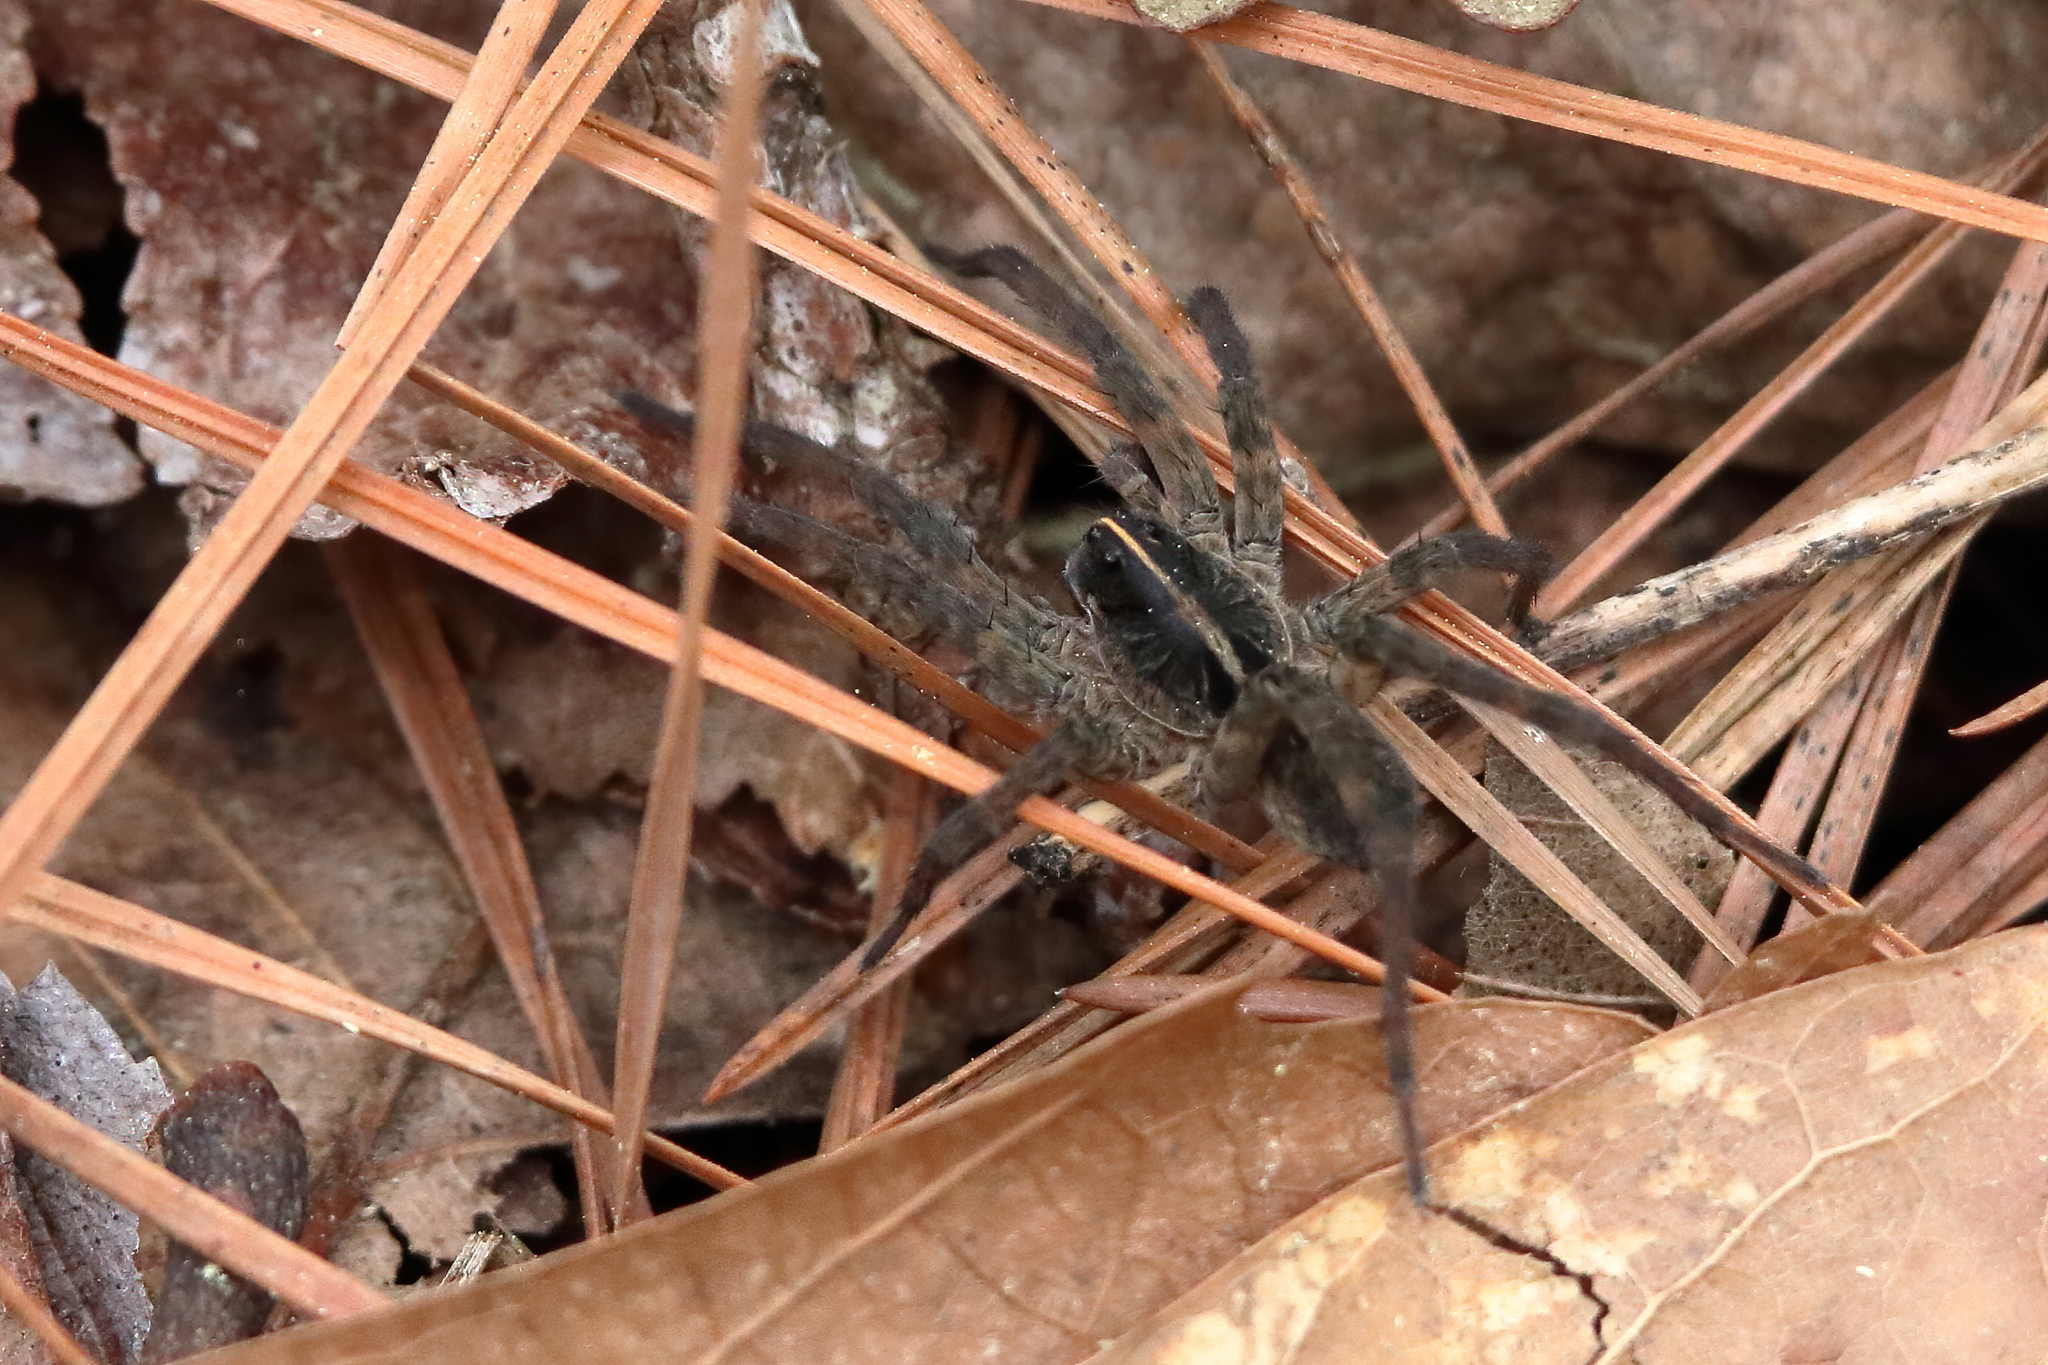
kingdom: Animalia
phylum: Arthropoda
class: Arachnida
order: Araneae
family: Lycosidae
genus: Tigrosa
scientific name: Tigrosa georgicola
